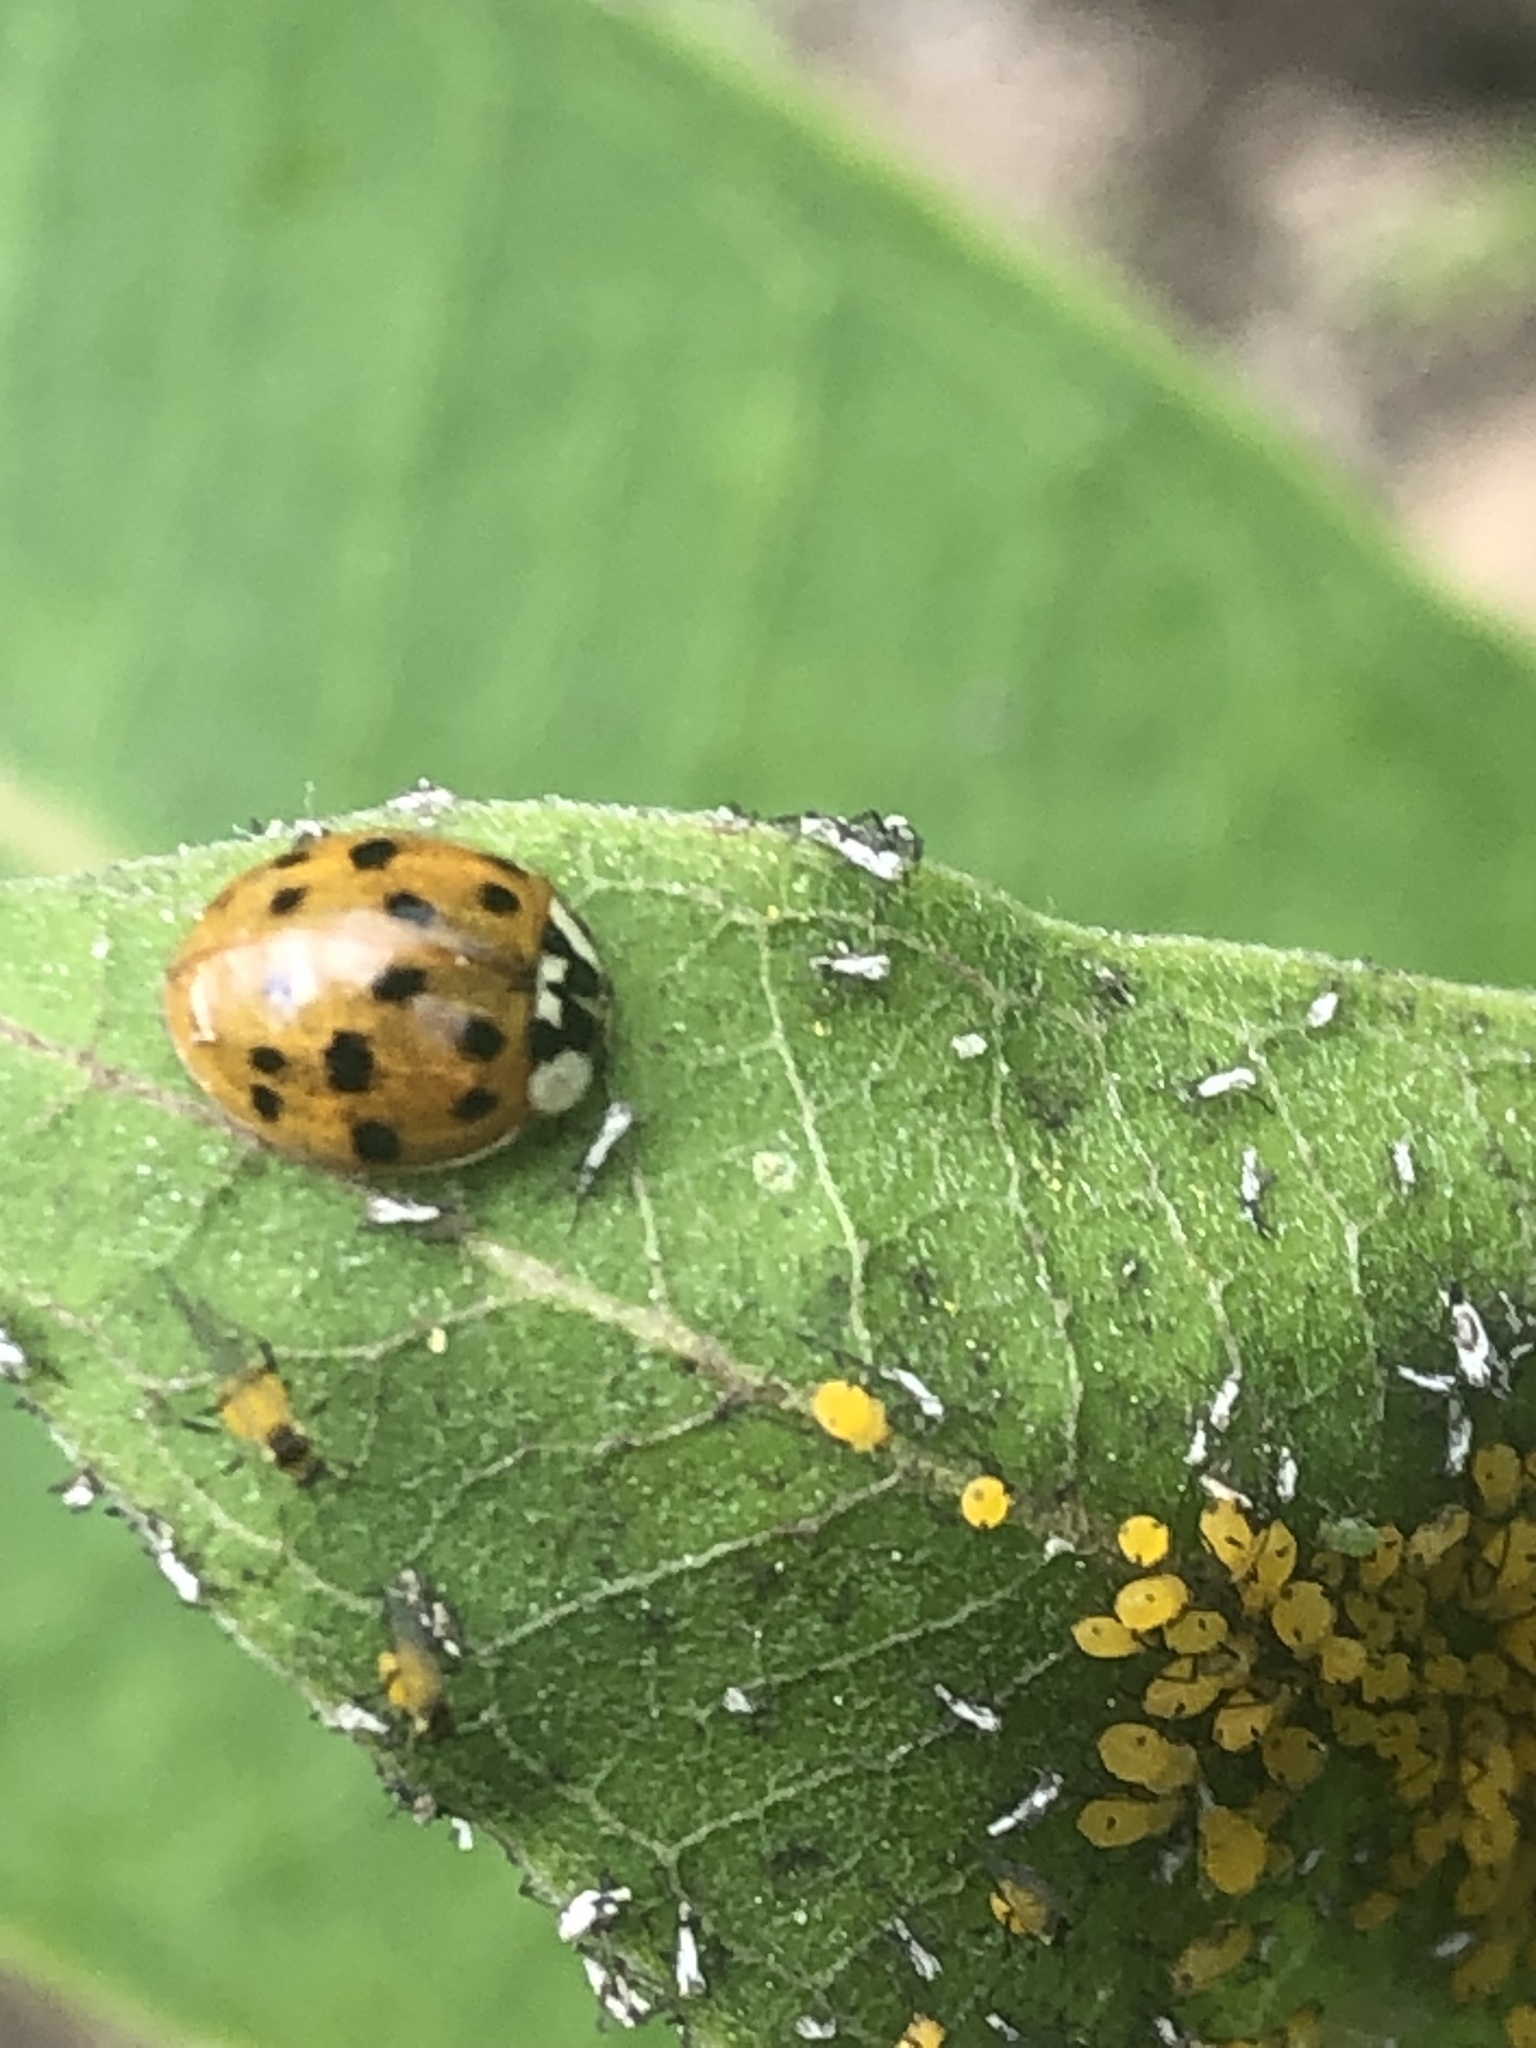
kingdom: Animalia
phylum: Arthropoda
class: Insecta
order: Coleoptera
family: Coccinellidae
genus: Harmonia
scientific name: Harmonia axyridis
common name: Harlequin ladybird
